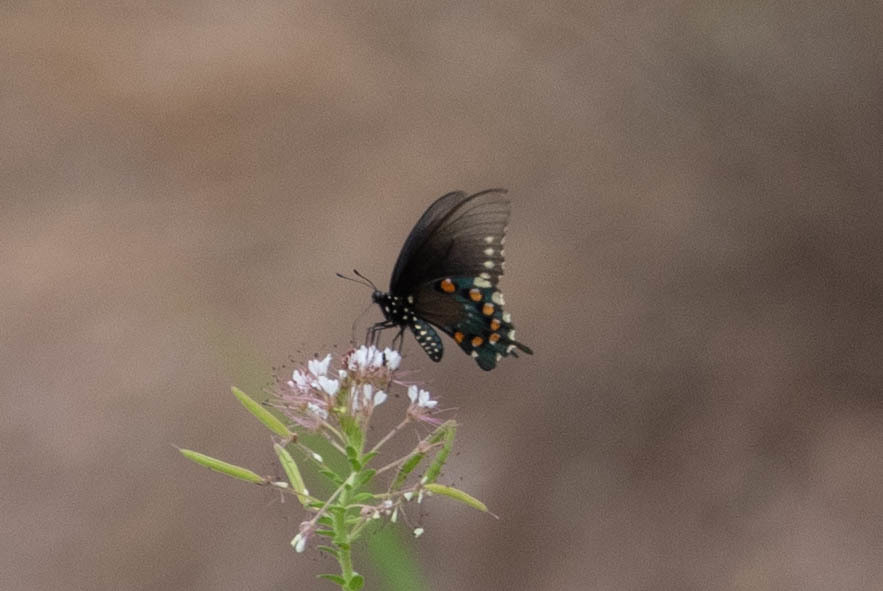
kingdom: Animalia
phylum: Arthropoda
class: Insecta
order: Lepidoptera
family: Papilionidae
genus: Battus
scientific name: Battus philenor
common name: Pipevine swallowtail
